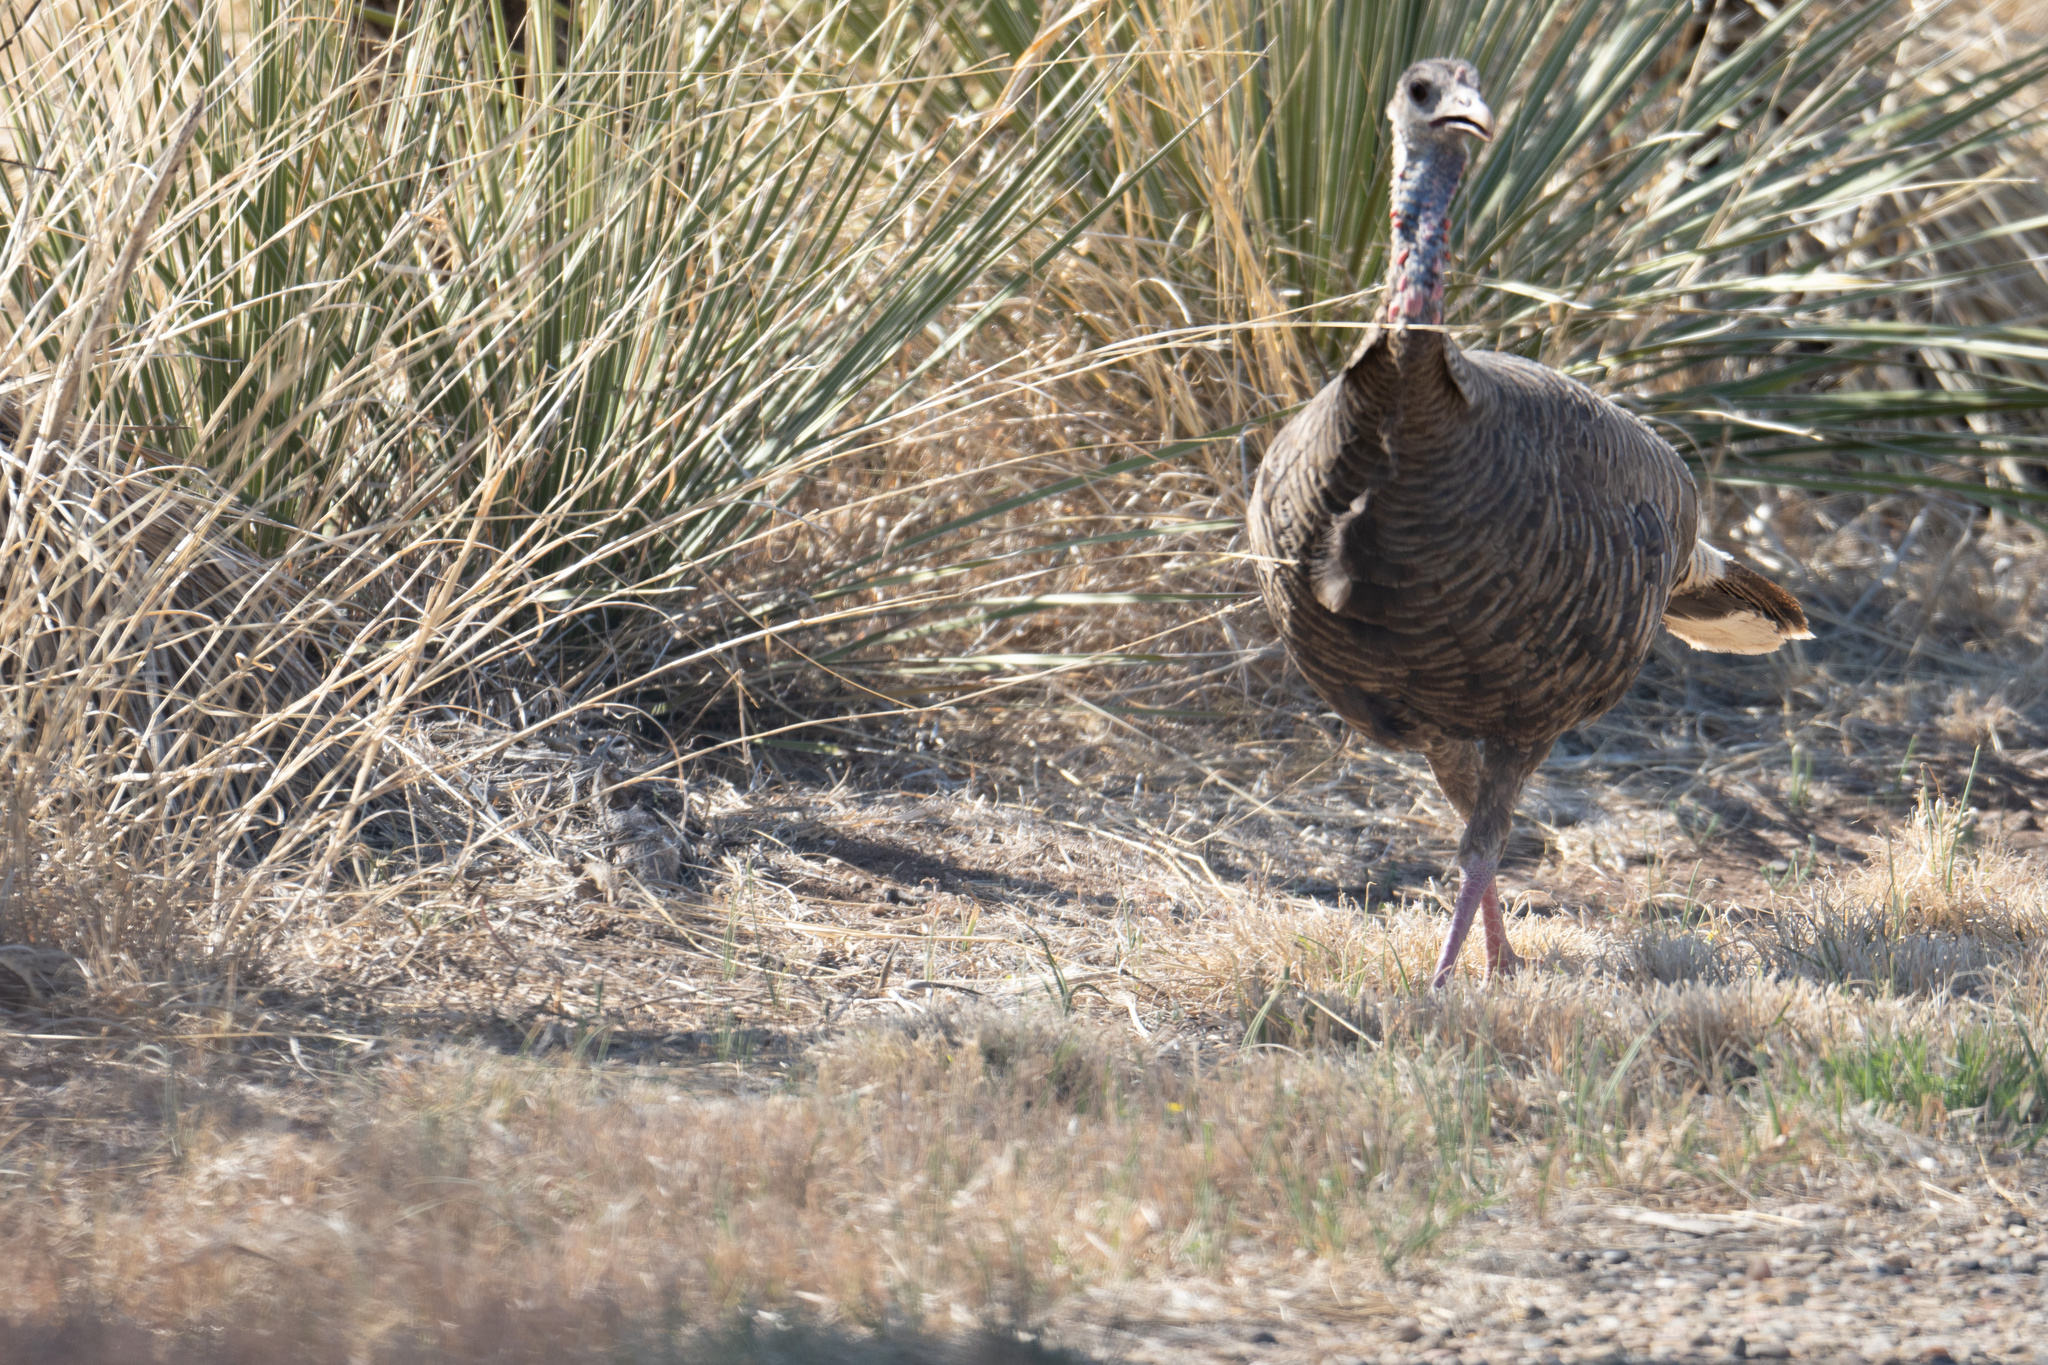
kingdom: Animalia
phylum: Chordata
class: Aves
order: Galliformes
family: Phasianidae
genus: Meleagris
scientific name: Meleagris gallopavo
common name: Wild turkey
